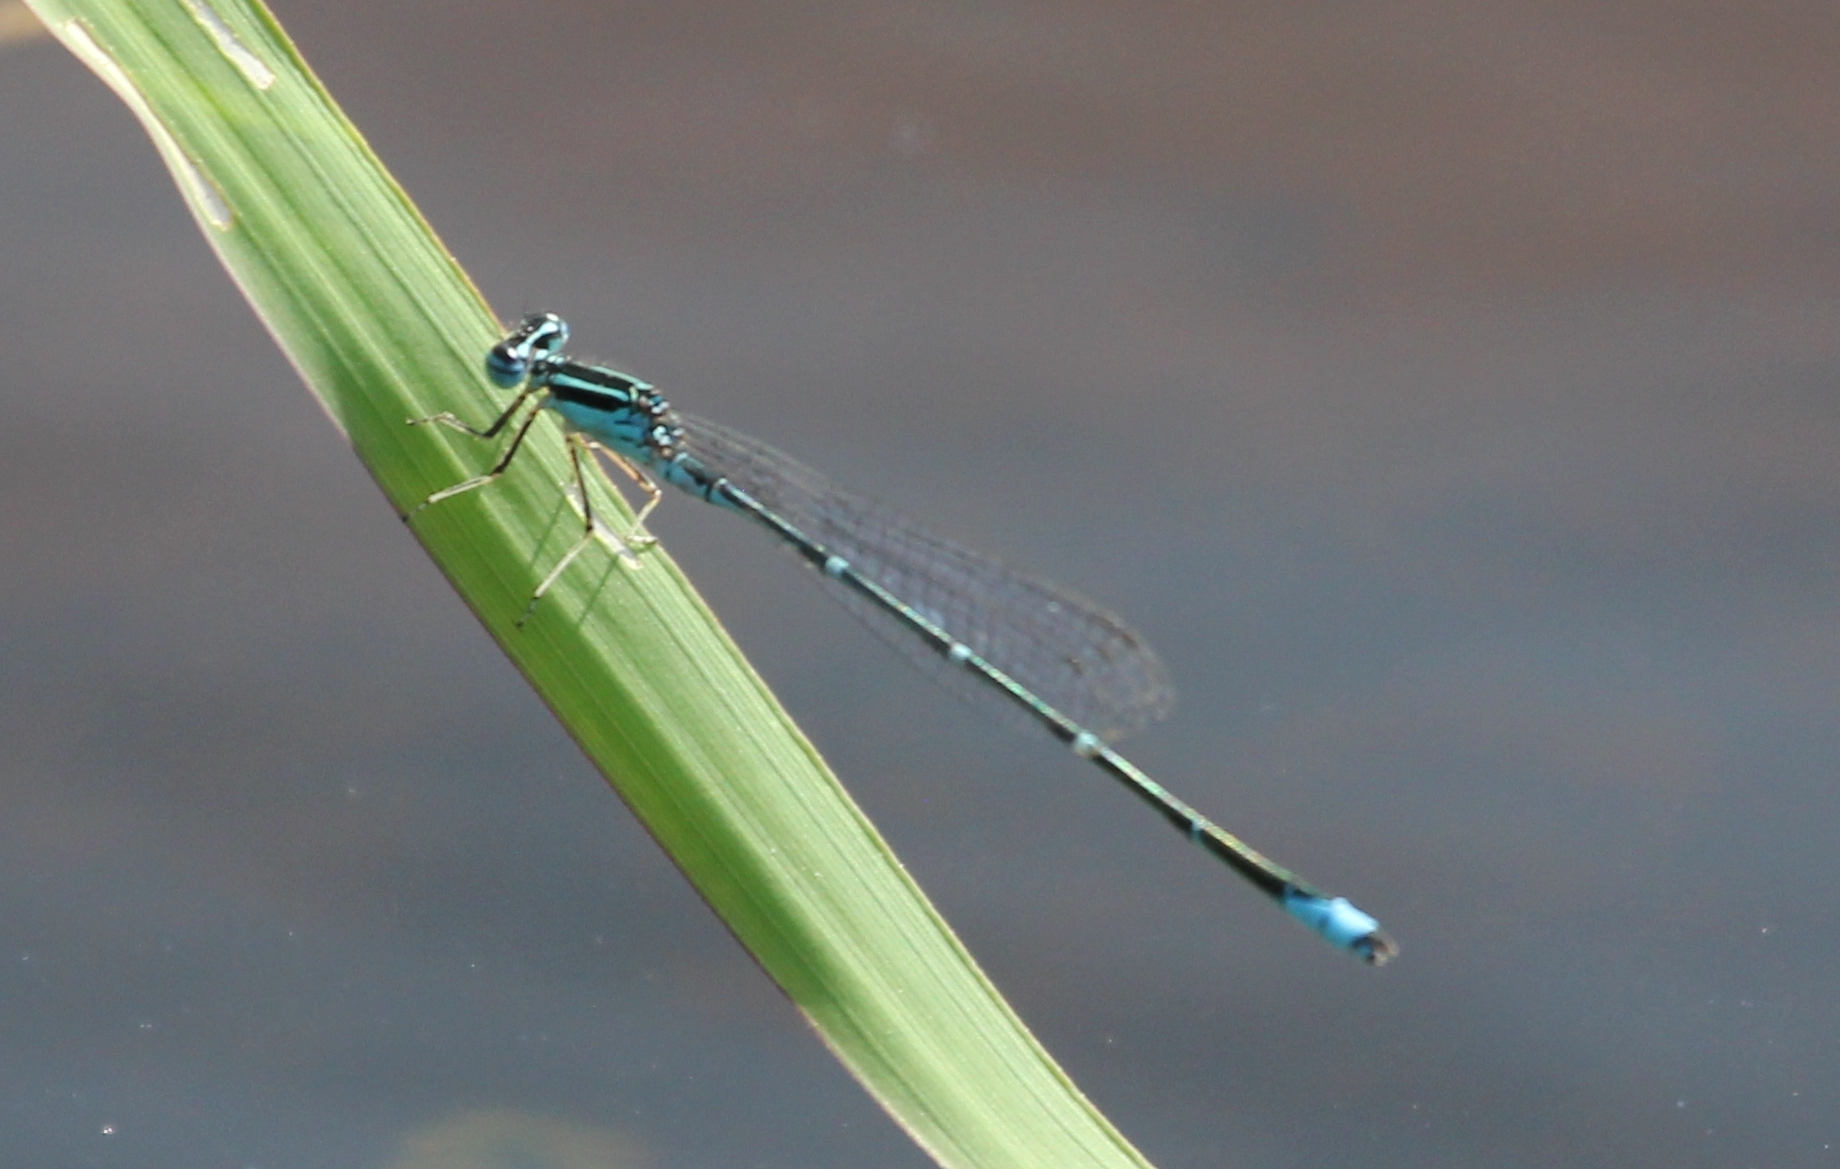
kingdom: Animalia
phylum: Arthropoda
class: Insecta
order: Odonata
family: Coenagrionidae
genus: Enallagma
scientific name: Enallagma exsulans
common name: Stream bluet
